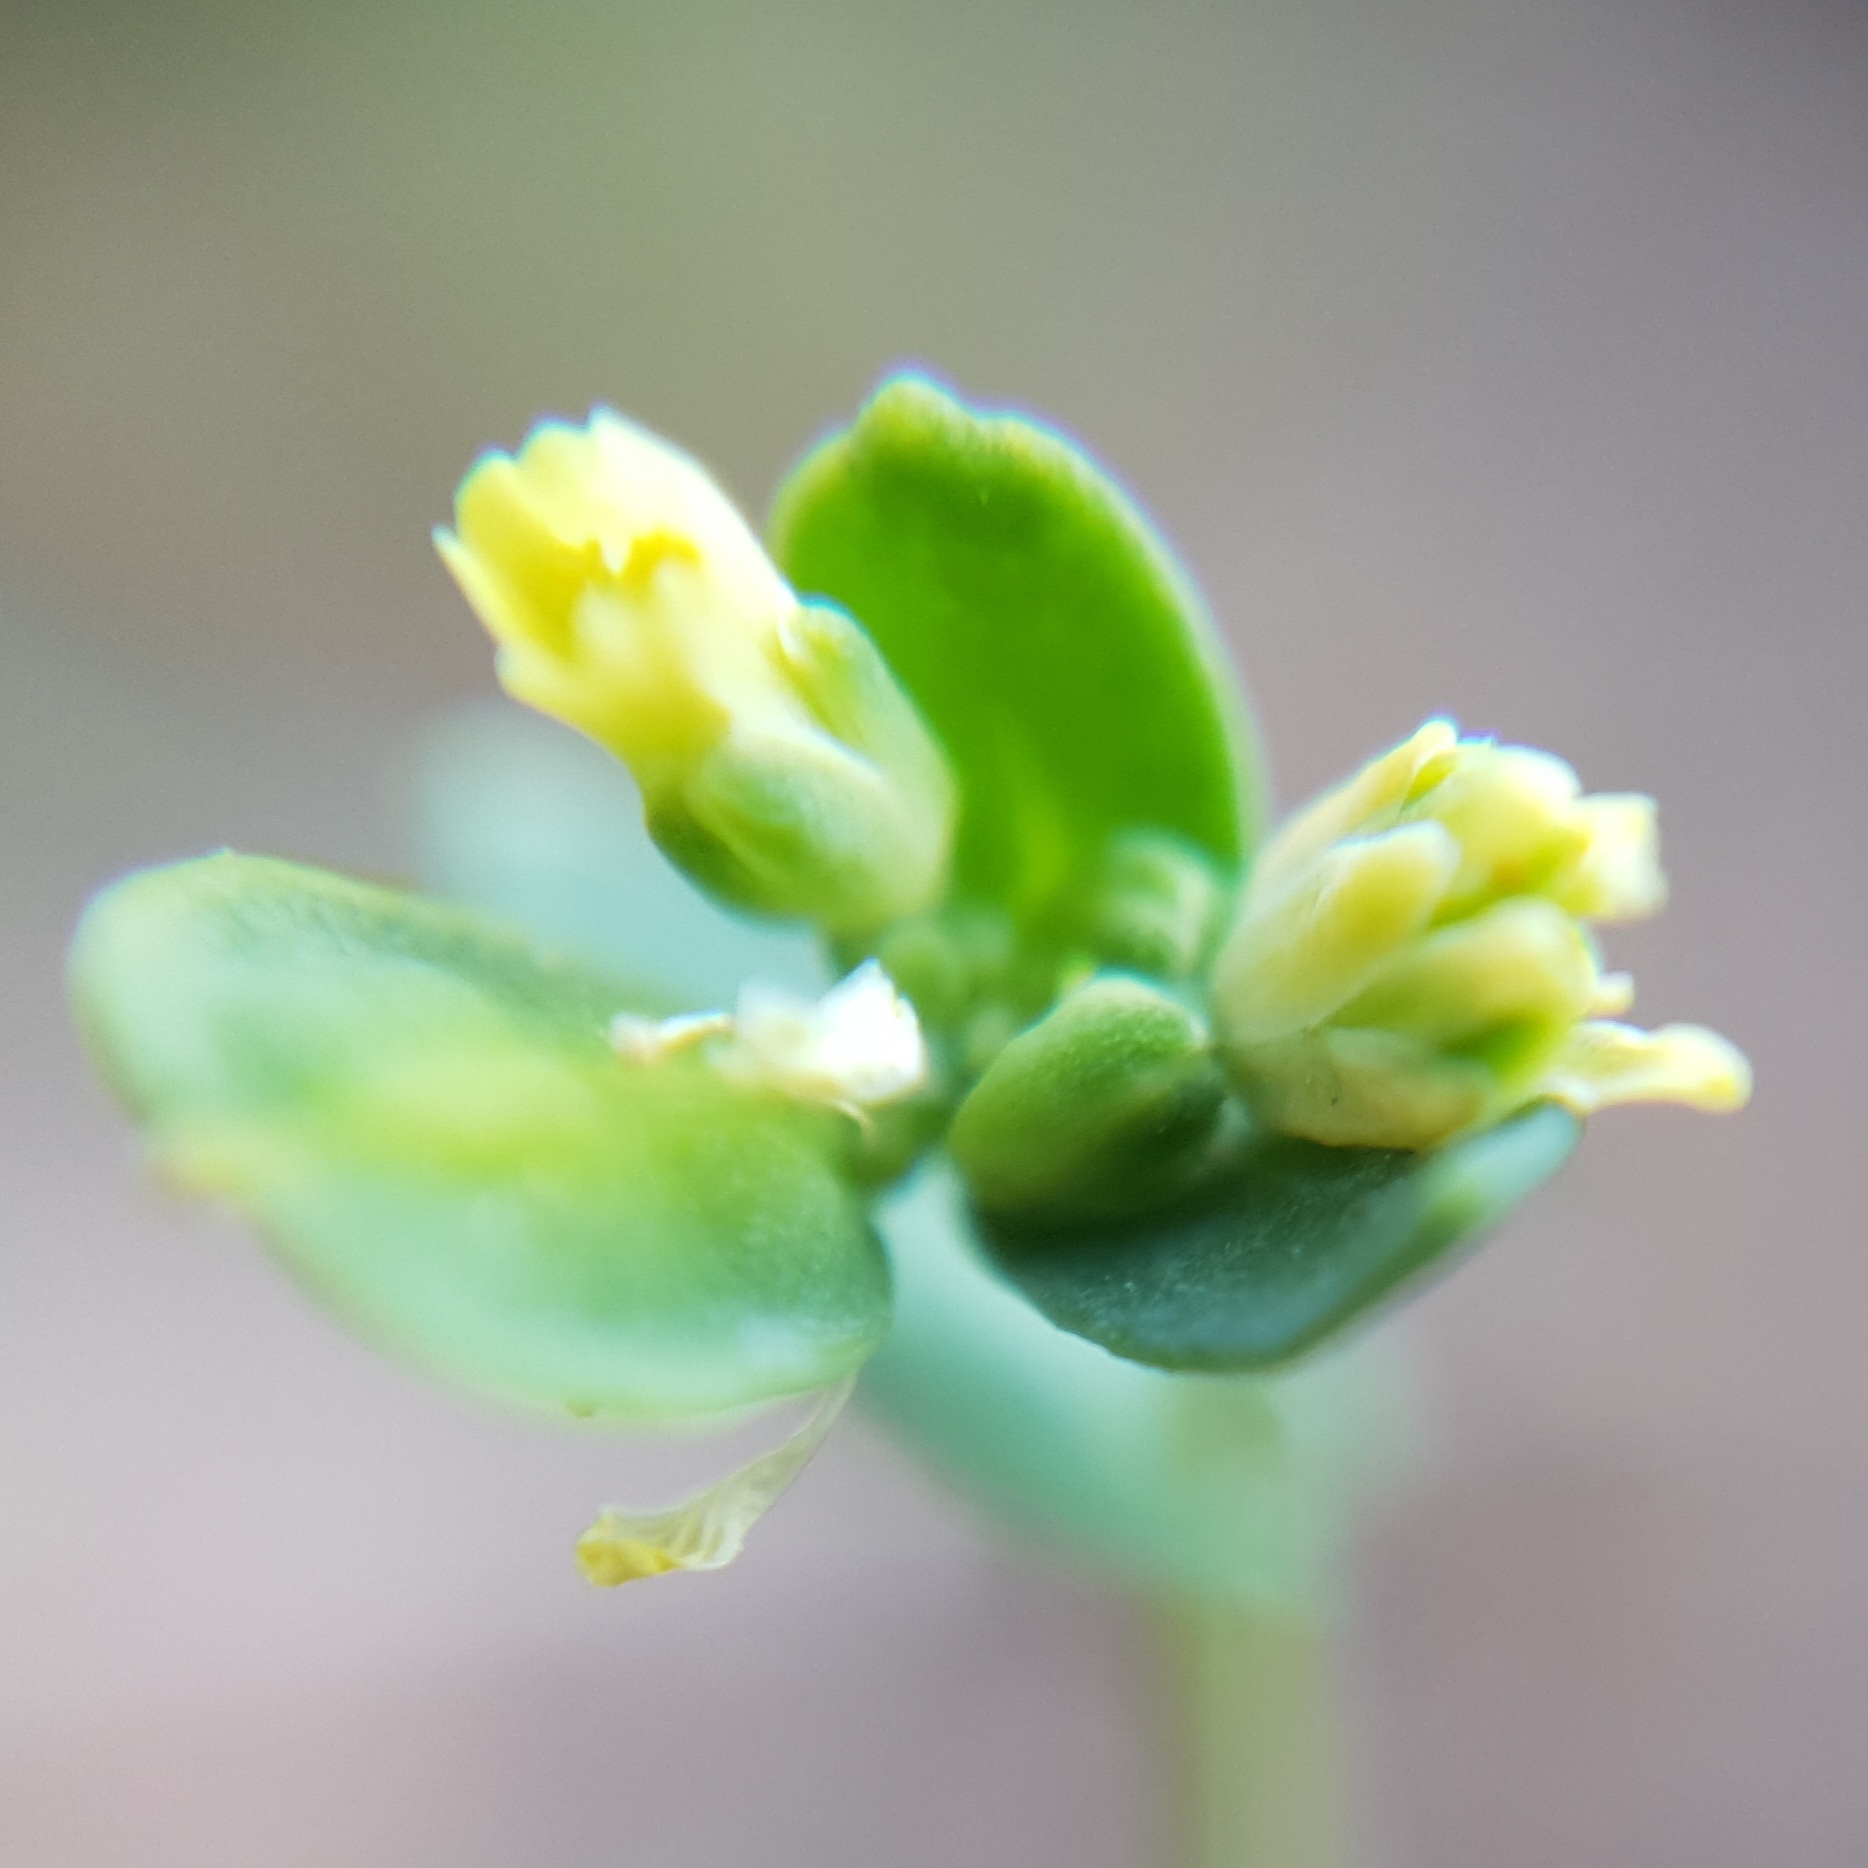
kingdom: Plantae
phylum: Tracheophyta
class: Magnoliopsida
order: Brassicales
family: Brassicaceae
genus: Bivonaea
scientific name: Bivonaea lutea
